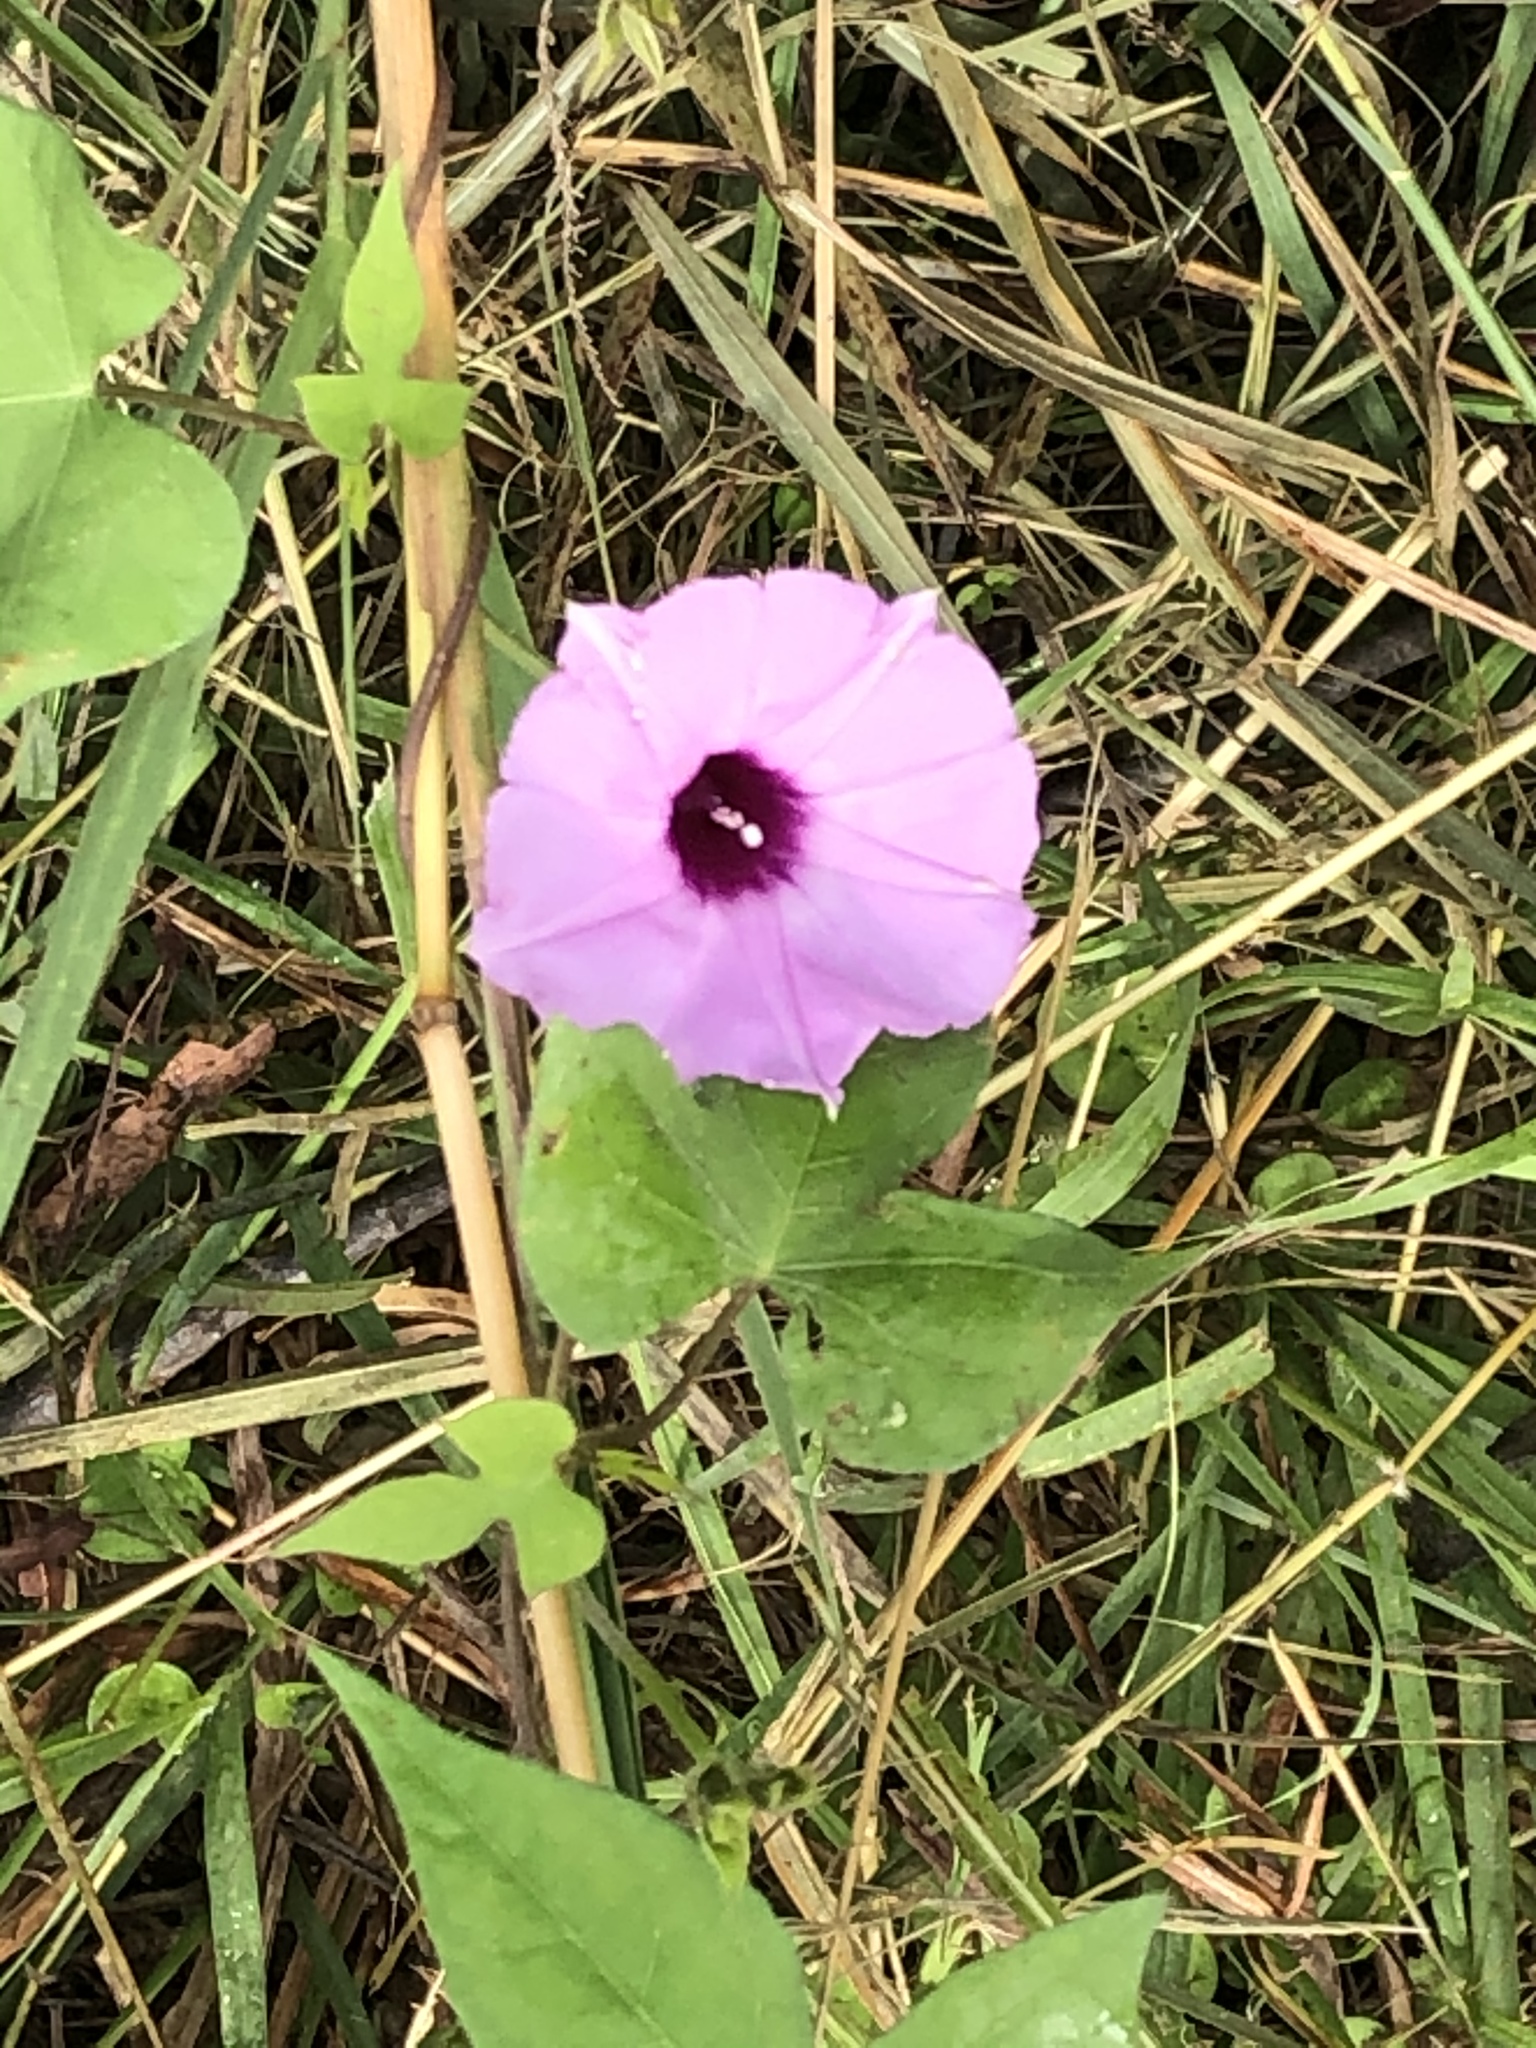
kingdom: Plantae
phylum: Tracheophyta
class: Magnoliopsida
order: Solanales
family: Convolvulaceae
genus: Ipomoea
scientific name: Ipomoea cordatotriloba
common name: Cotton morning glory
